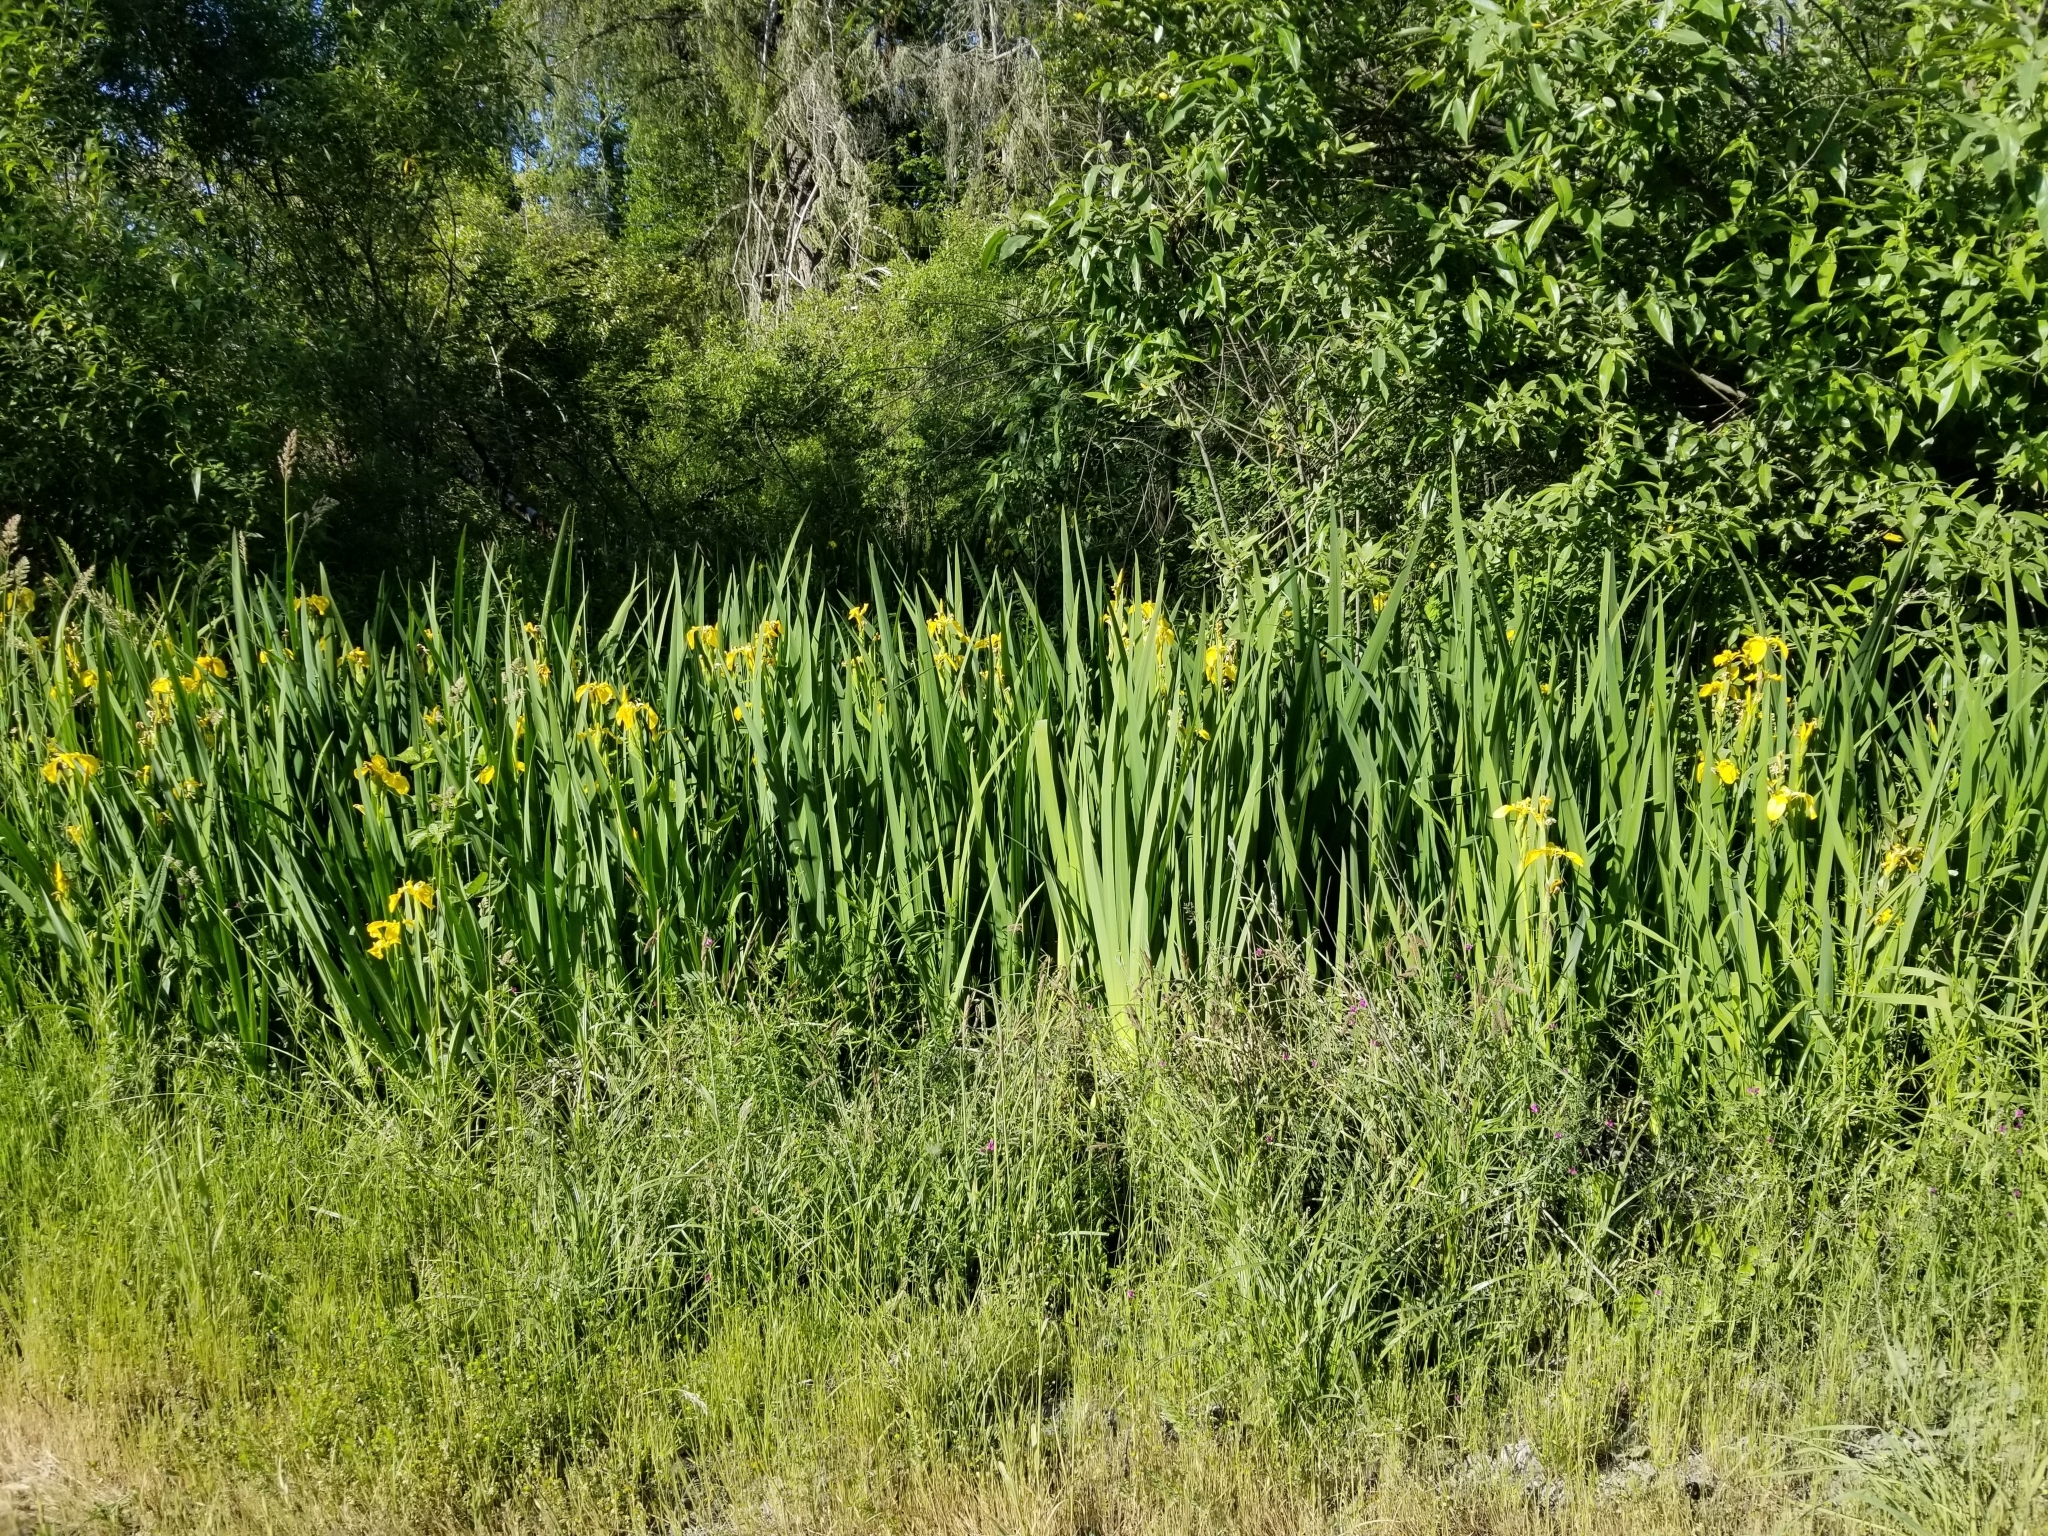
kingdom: Plantae
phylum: Tracheophyta
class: Liliopsida
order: Asparagales
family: Iridaceae
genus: Iris
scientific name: Iris pseudacorus
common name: Yellow flag
